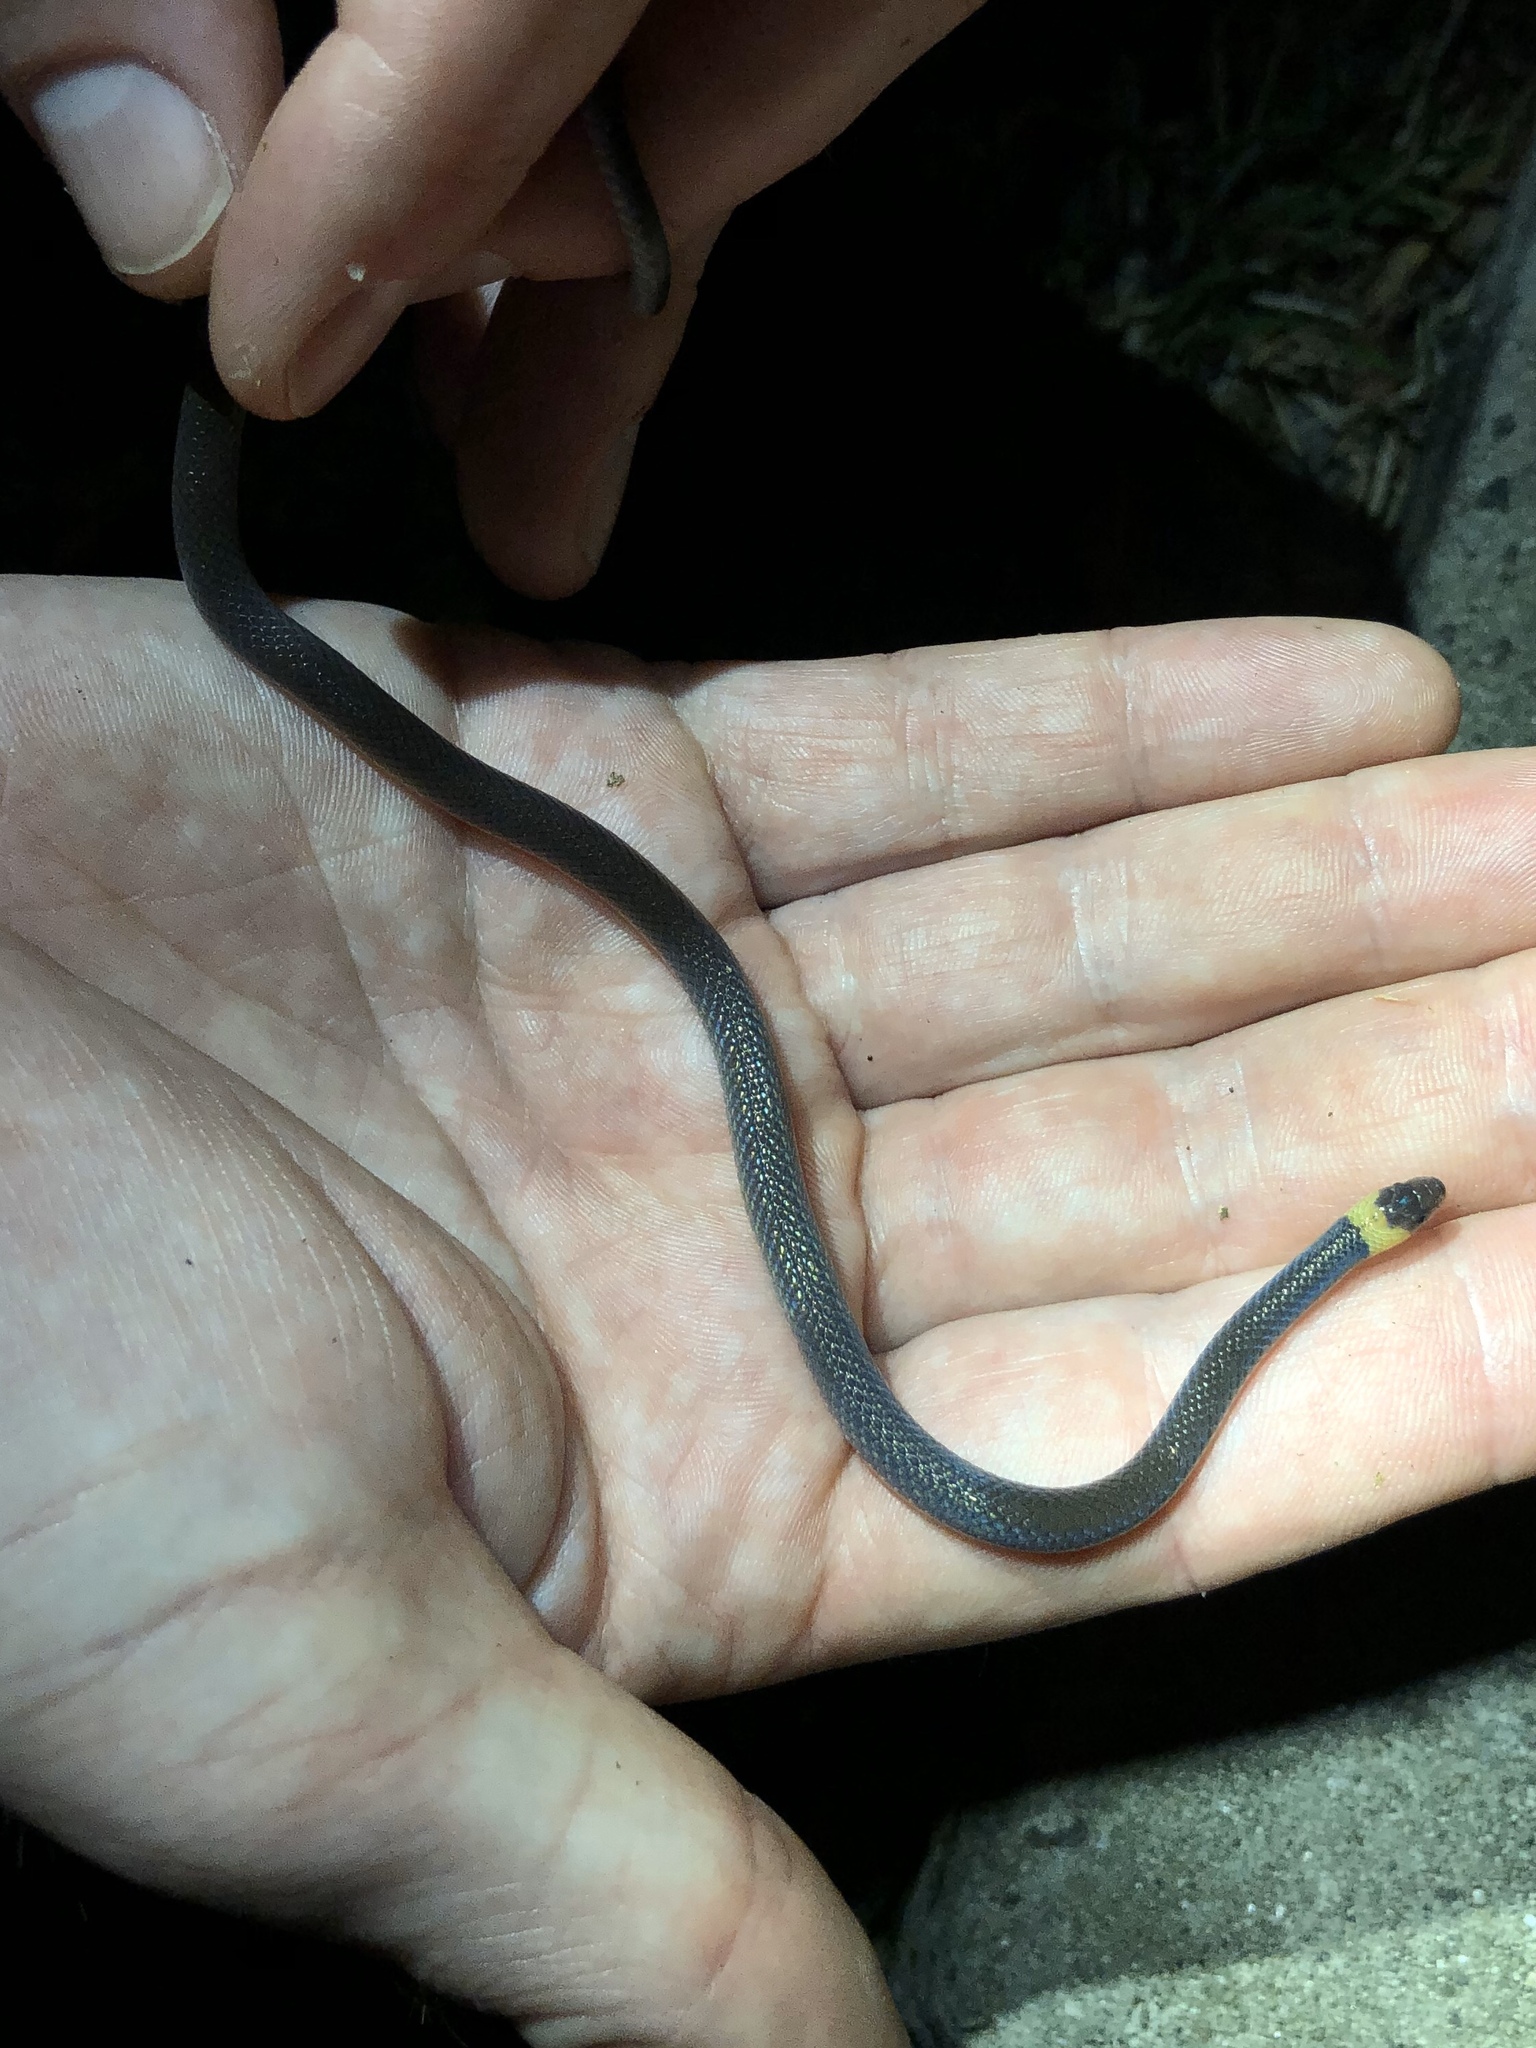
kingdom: Animalia
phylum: Chordata
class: Squamata
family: Colubridae
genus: Enulius
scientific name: Enulius flavitorques
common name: Pacific longtail snake
